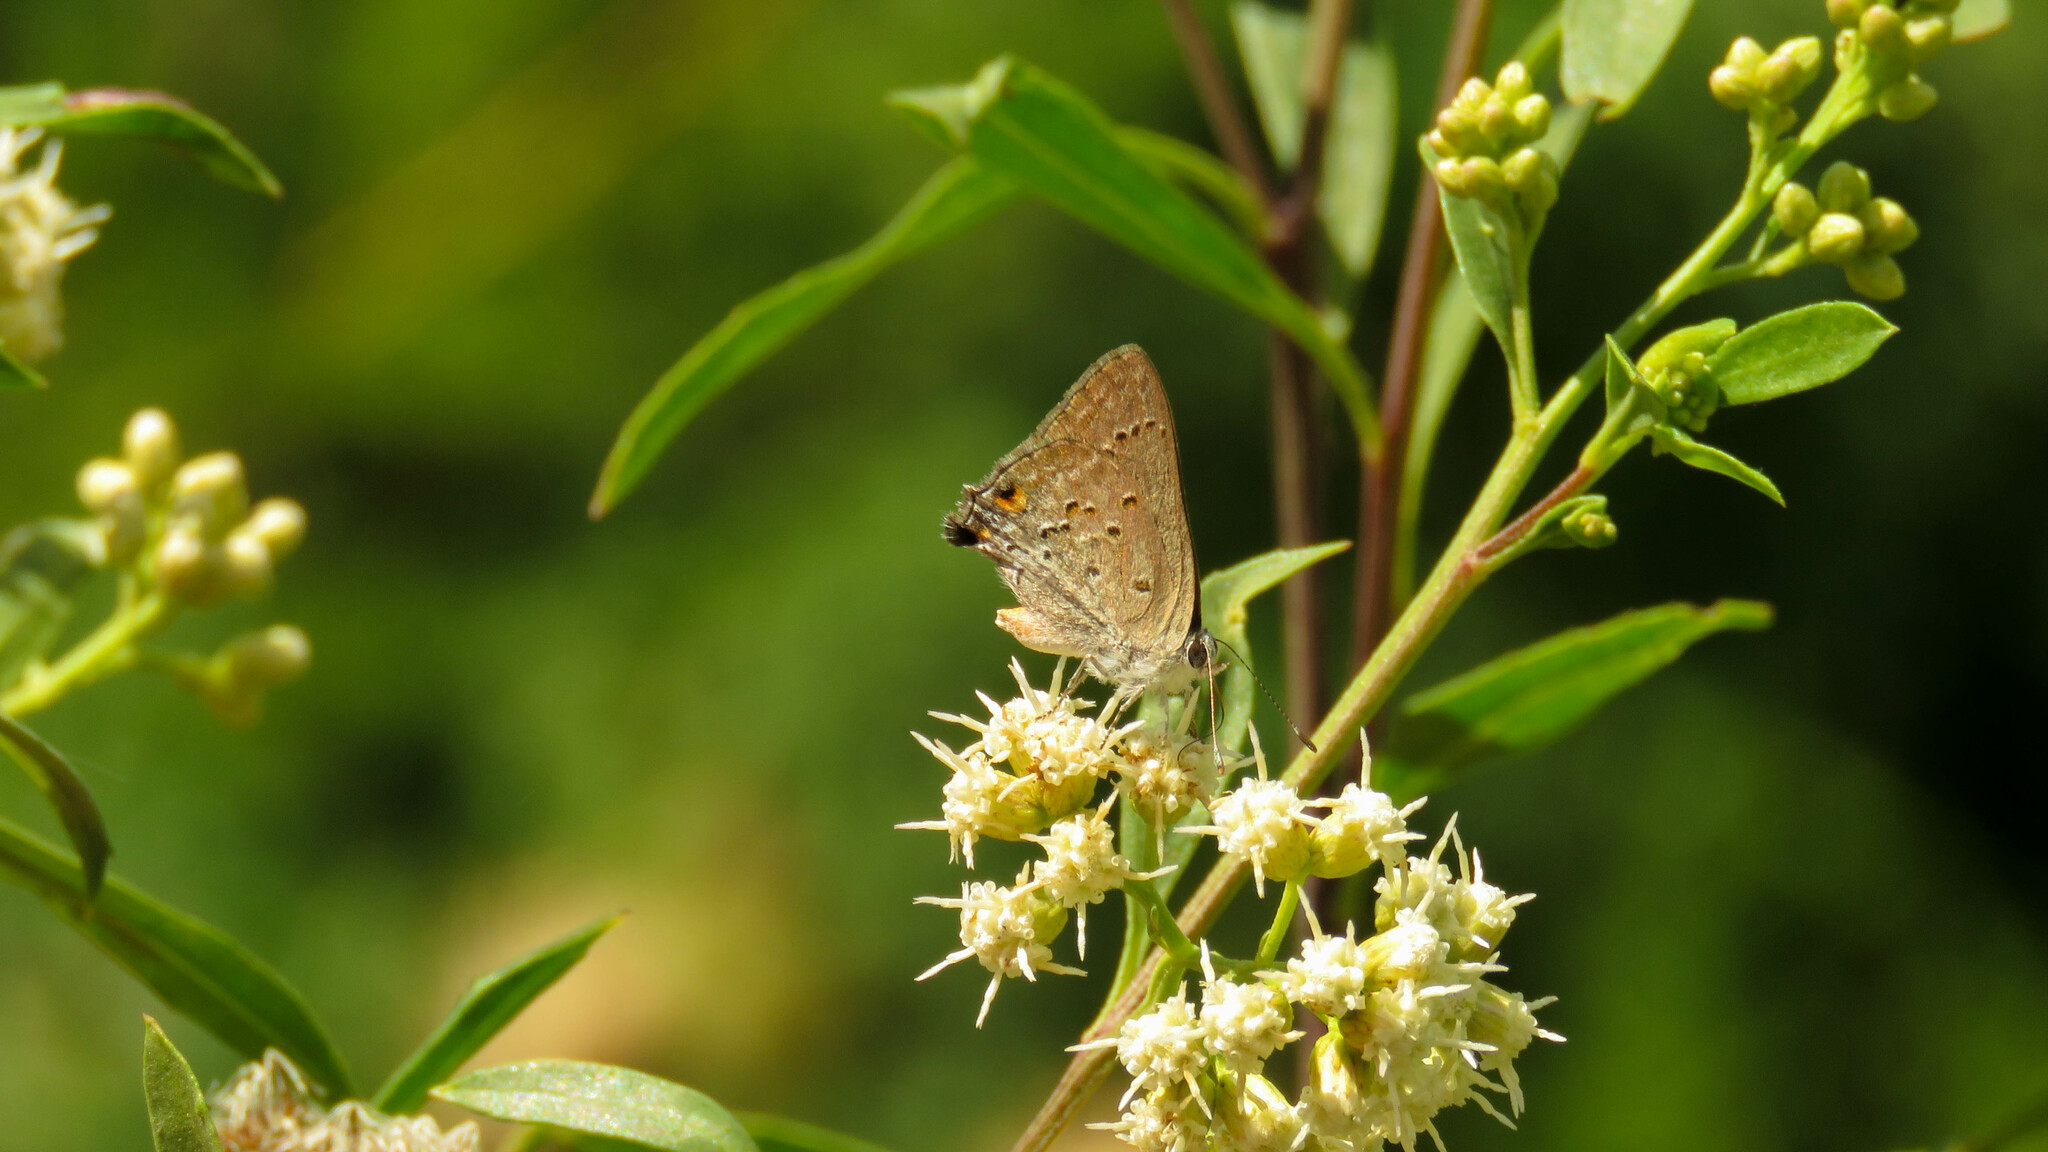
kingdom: Animalia
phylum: Arthropoda
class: Insecta
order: Lepidoptera
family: Lycaenidae
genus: Strymon
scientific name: Strymon eurytulus
